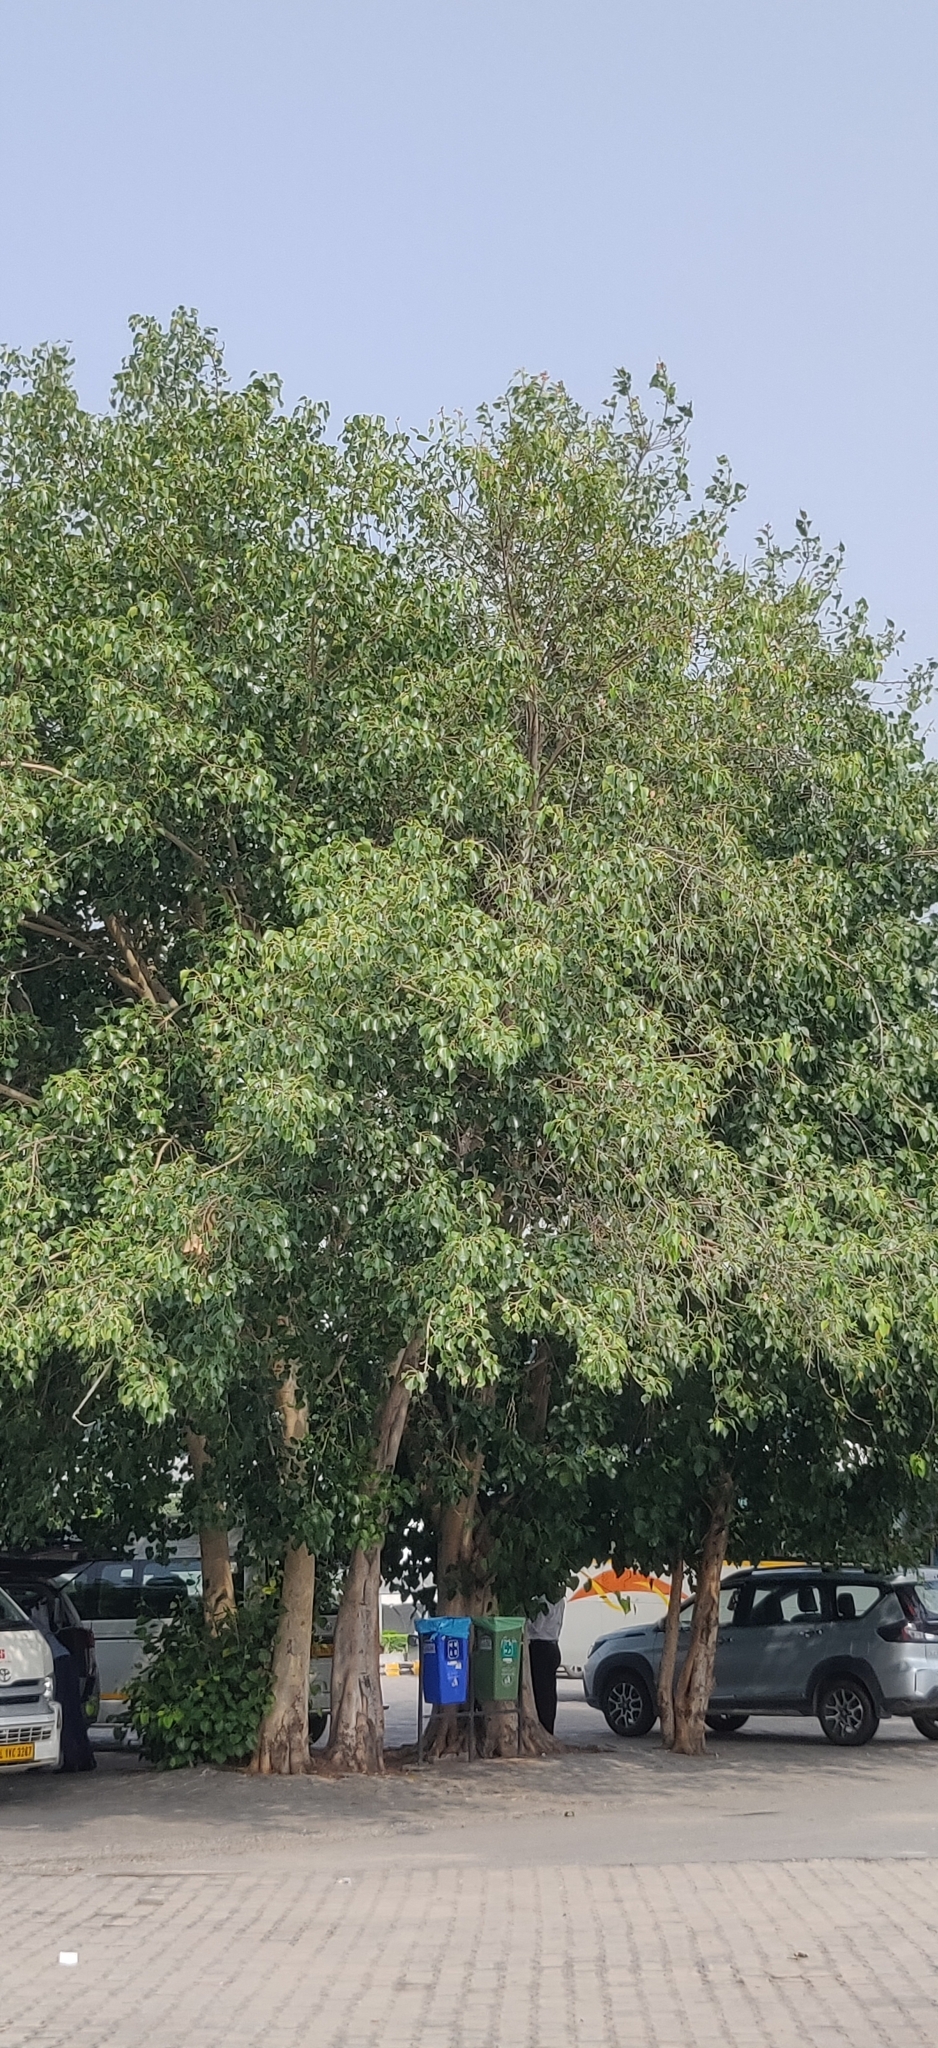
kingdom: Plantae
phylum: Tracheophyta
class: Magnoliopsida
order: Rosales
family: Moraceae
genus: Ficus
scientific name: Ficus religiosa
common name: Bodhi tree
